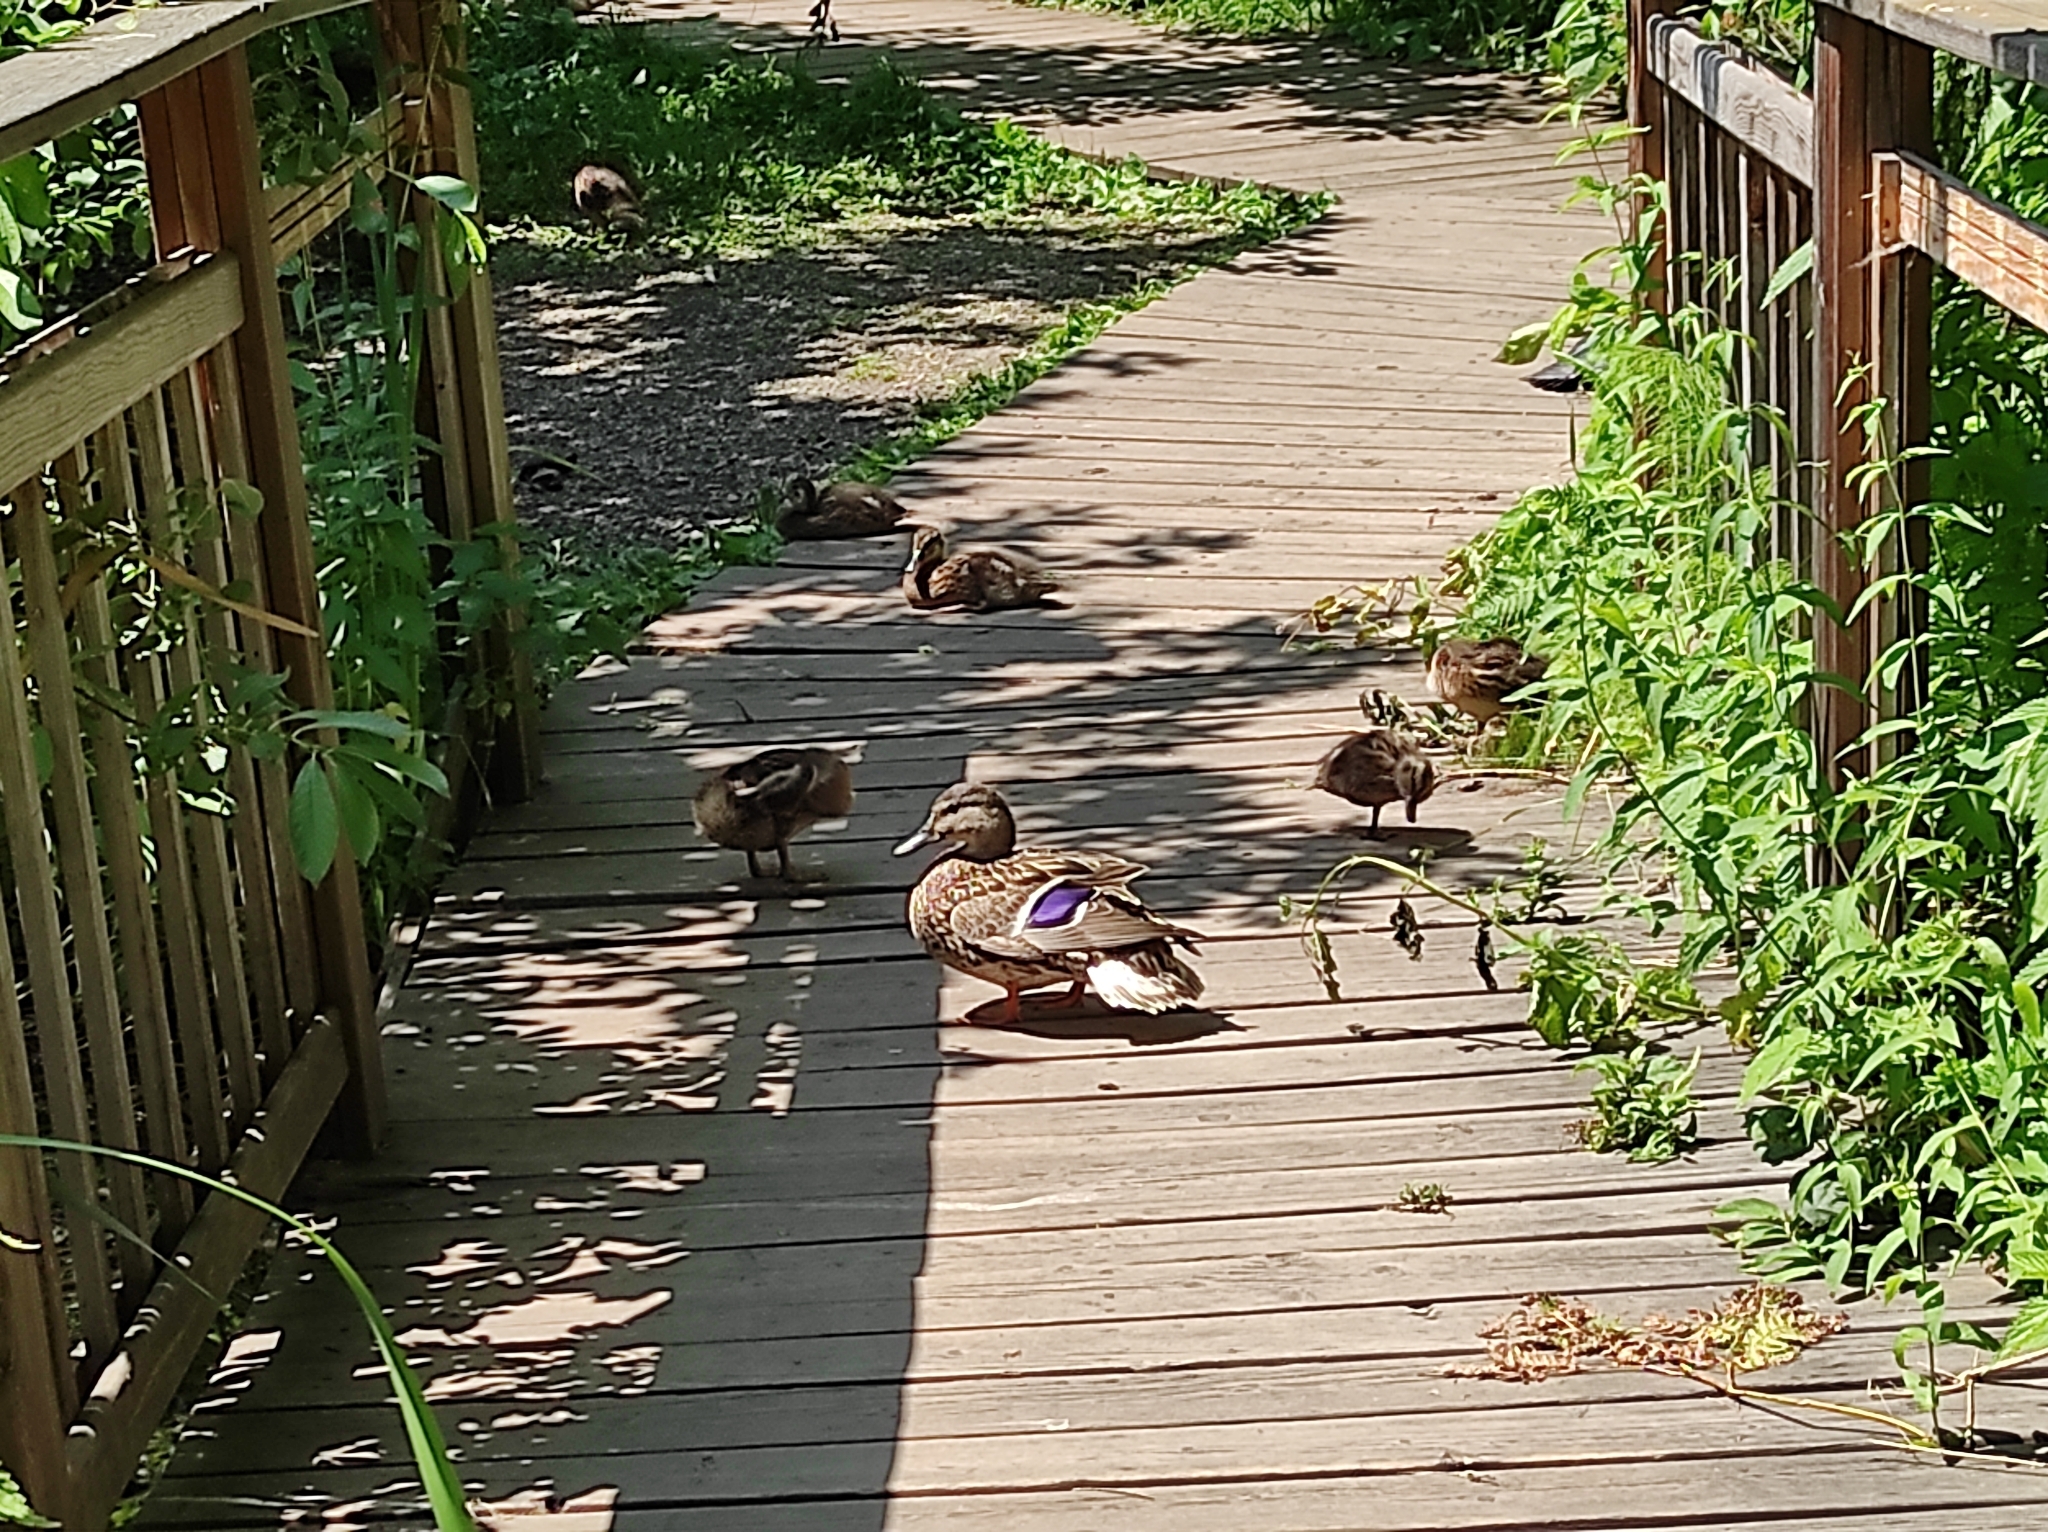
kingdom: Animalia
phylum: Chordata
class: Aves
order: Anseriformes
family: Anatidae
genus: Anas
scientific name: Anas platyrhynchos
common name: Mallard
